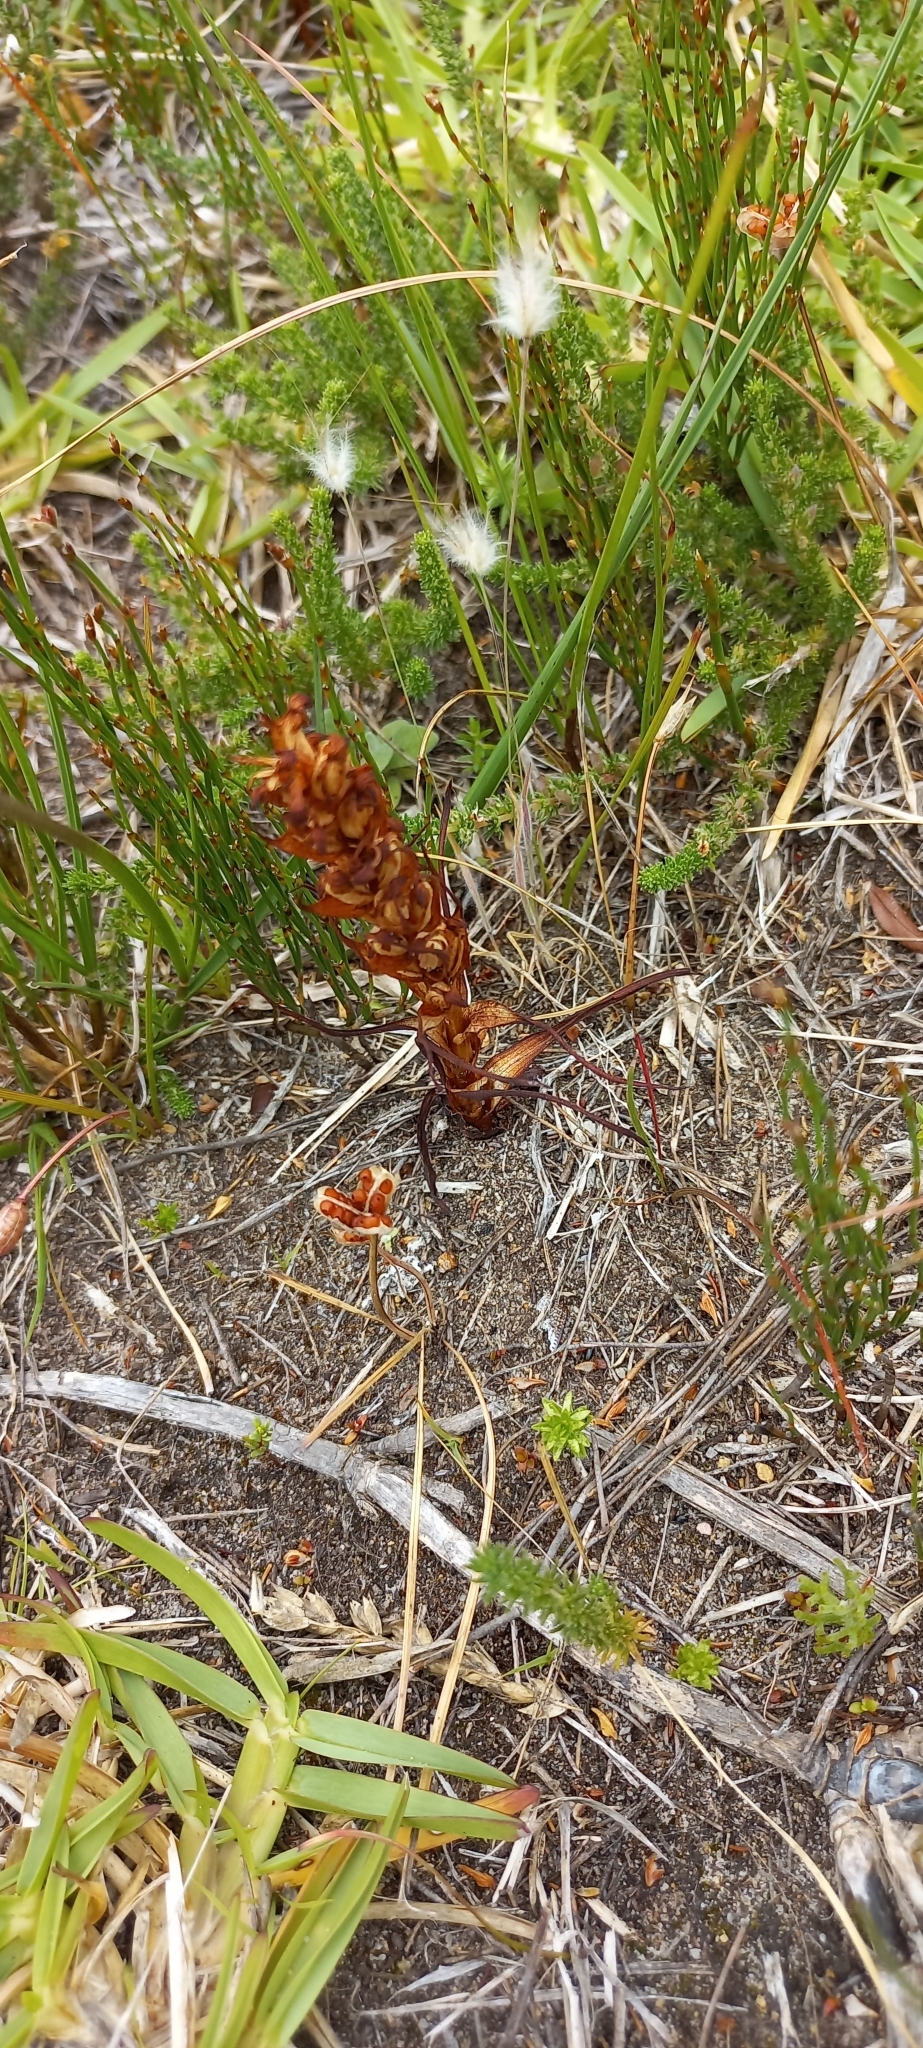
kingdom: Plantae
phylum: Tracheophyta
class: Liliopsida
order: Asparagales
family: Orchidaceae
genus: Disa
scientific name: Disa bracteata
